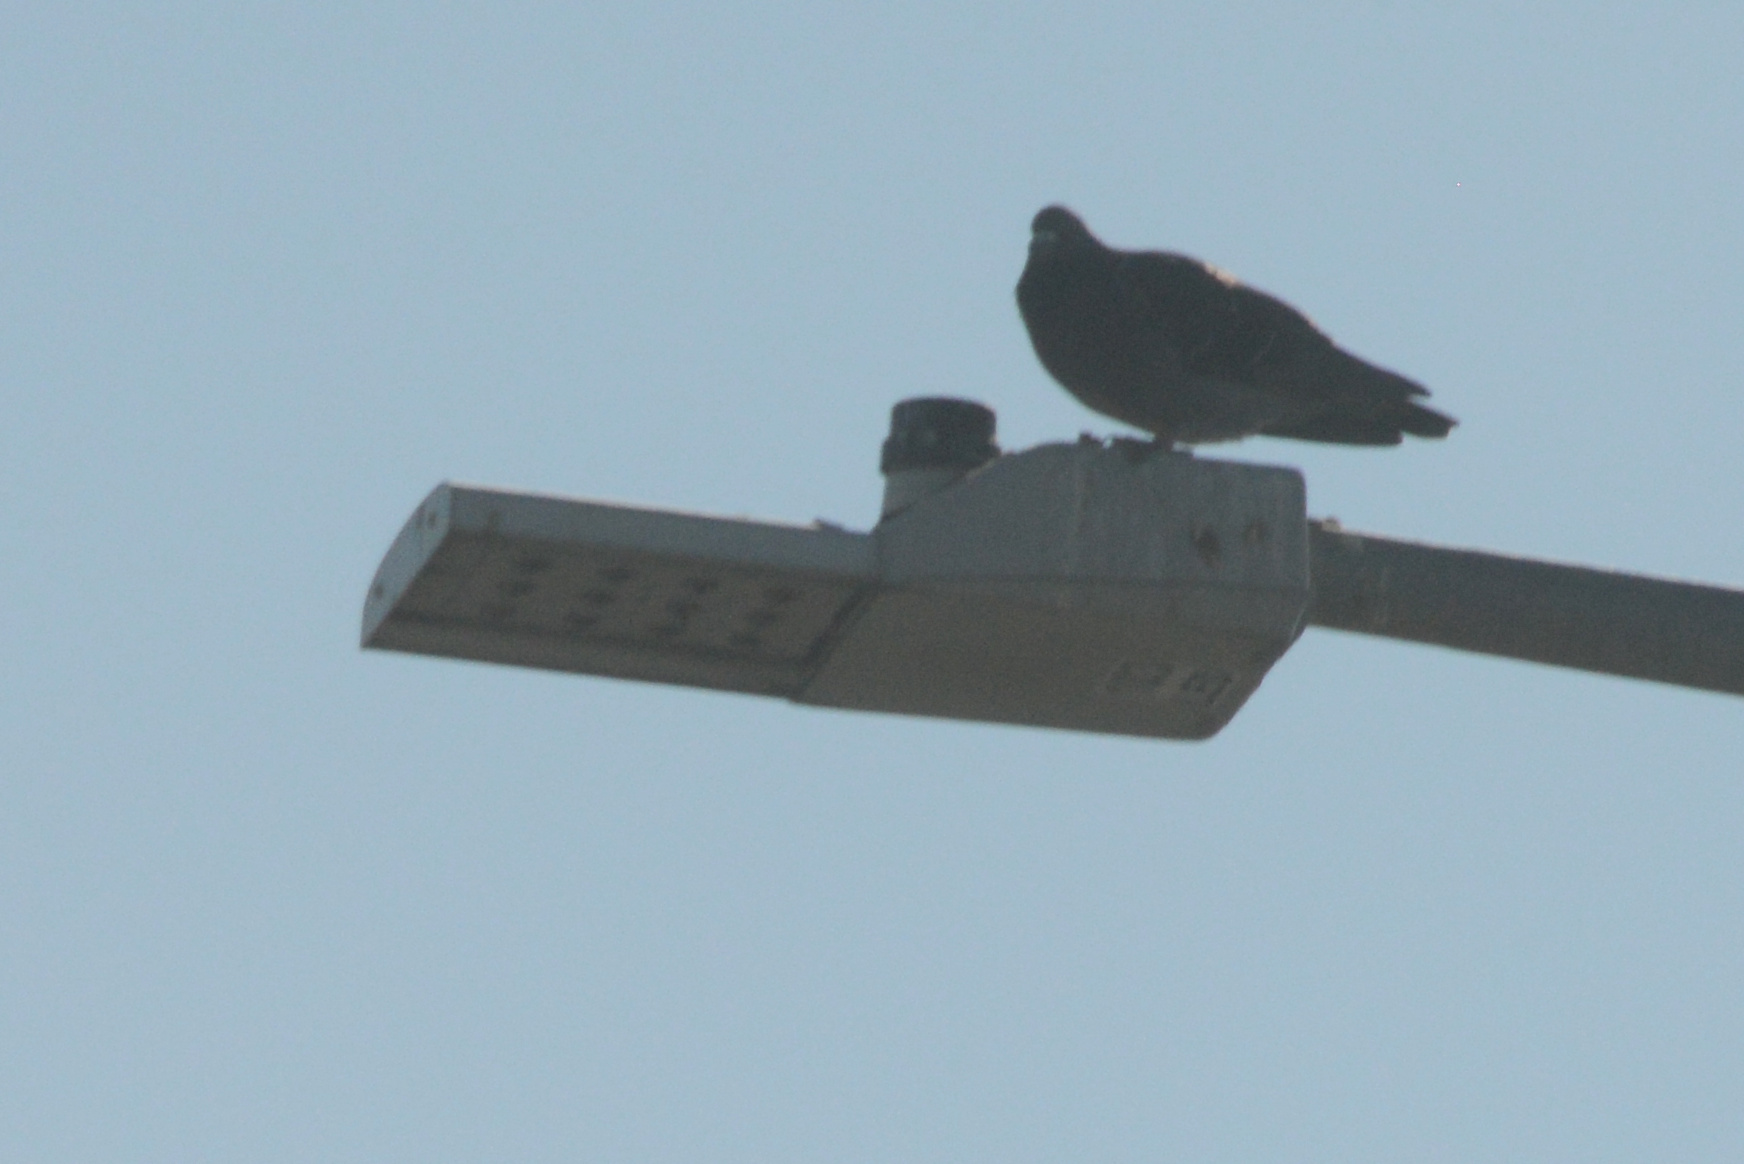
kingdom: Animalia
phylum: Chordata
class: Aves
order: Columbiformes
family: Columbidae
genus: Columba
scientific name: Columba livia
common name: Rock pigeon
